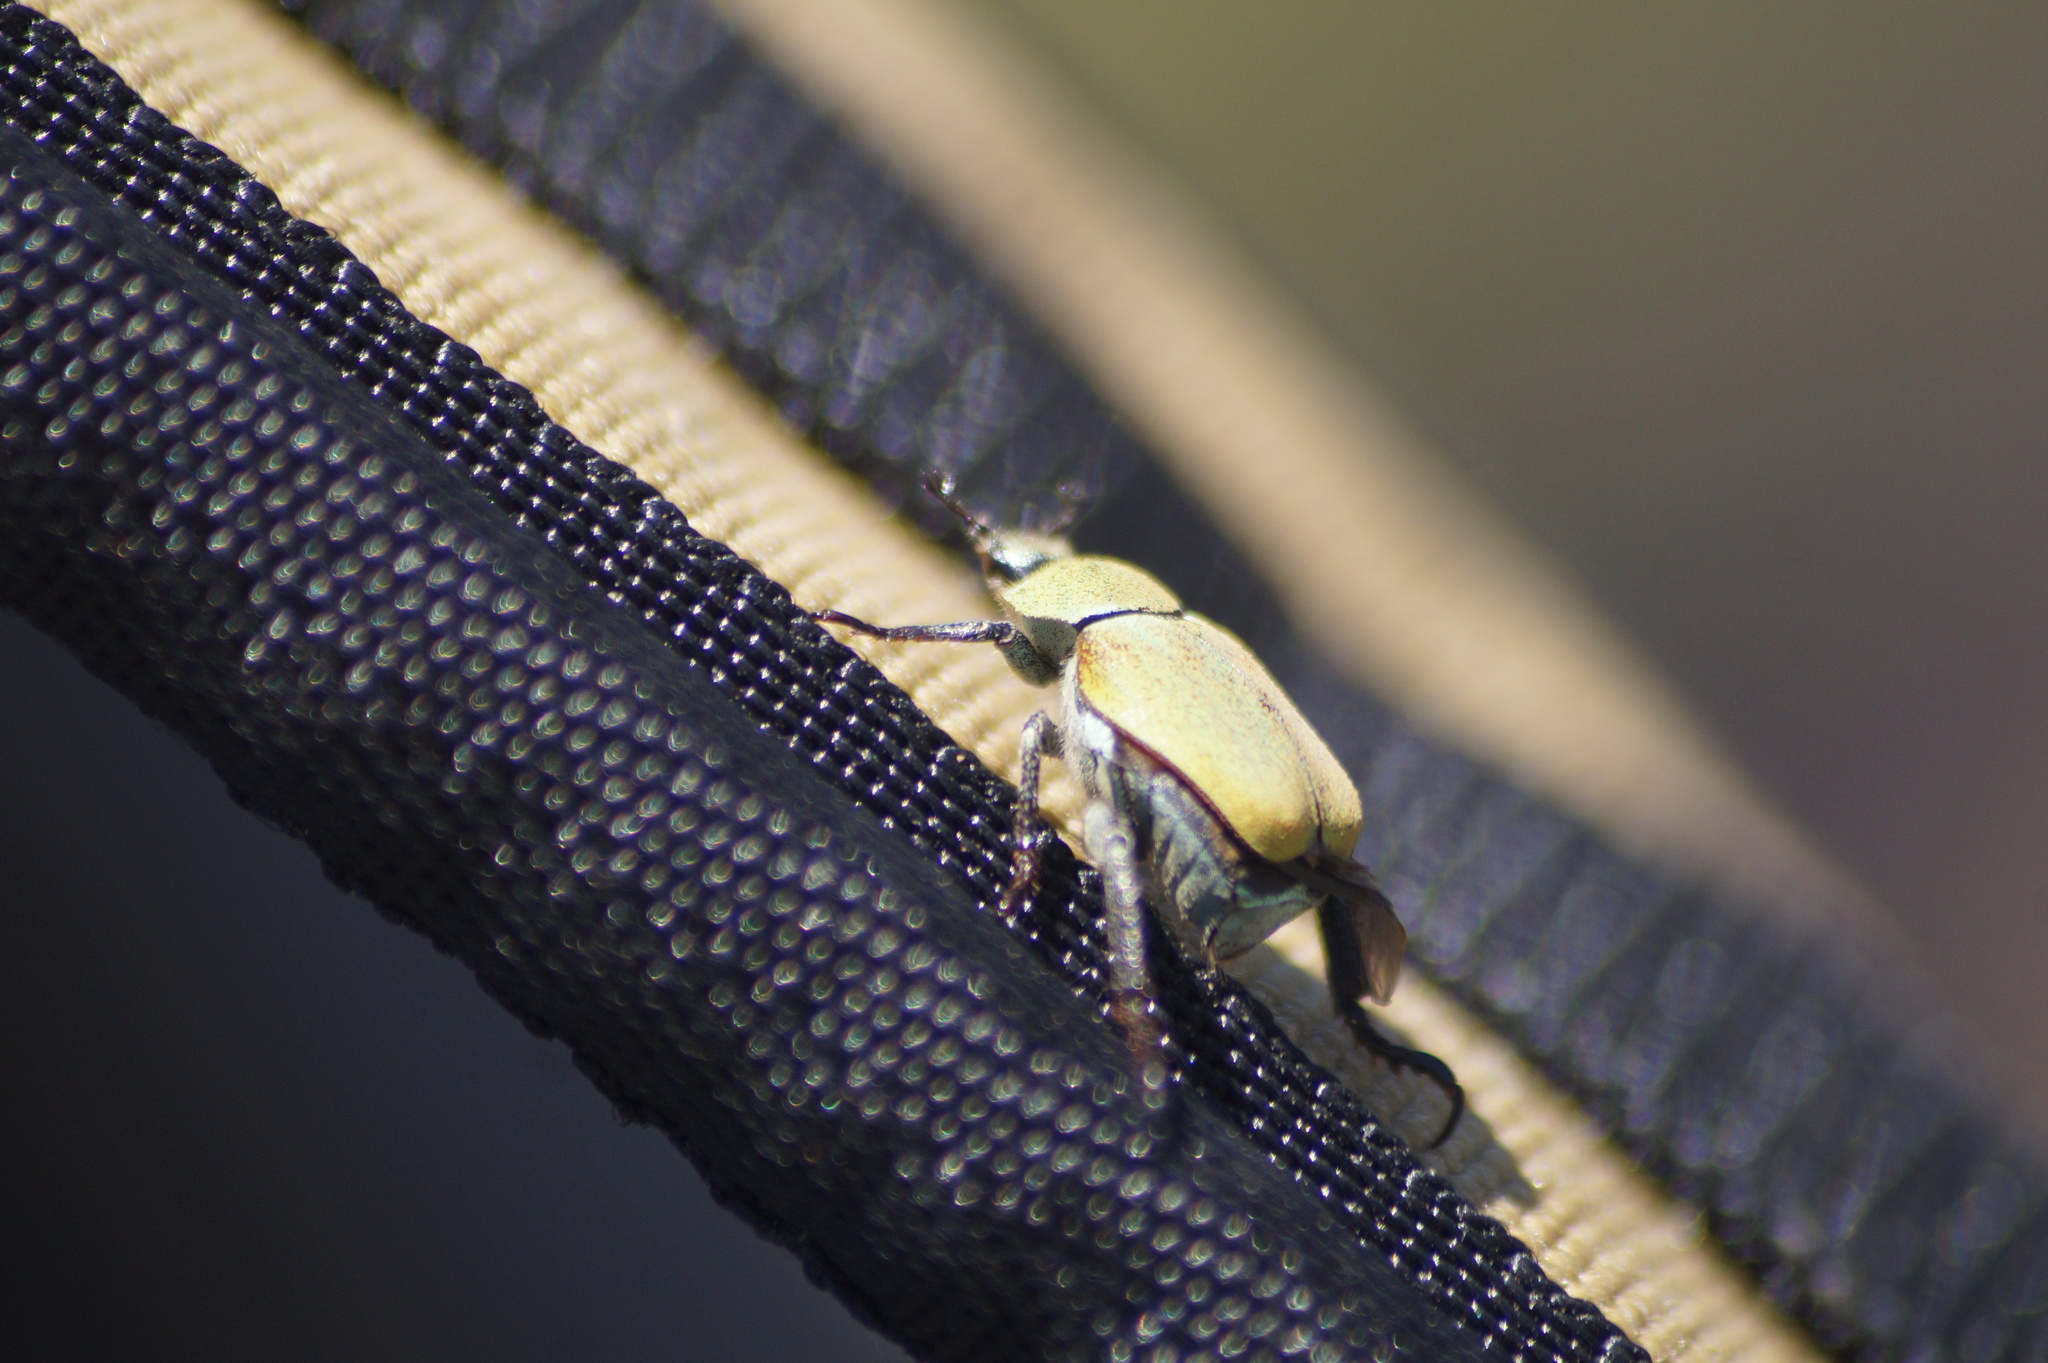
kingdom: Animalia
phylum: Arthropoda
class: Insecta
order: Coleoptera
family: Scarabaeidae
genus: Hoplia
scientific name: Hoplia argentea
